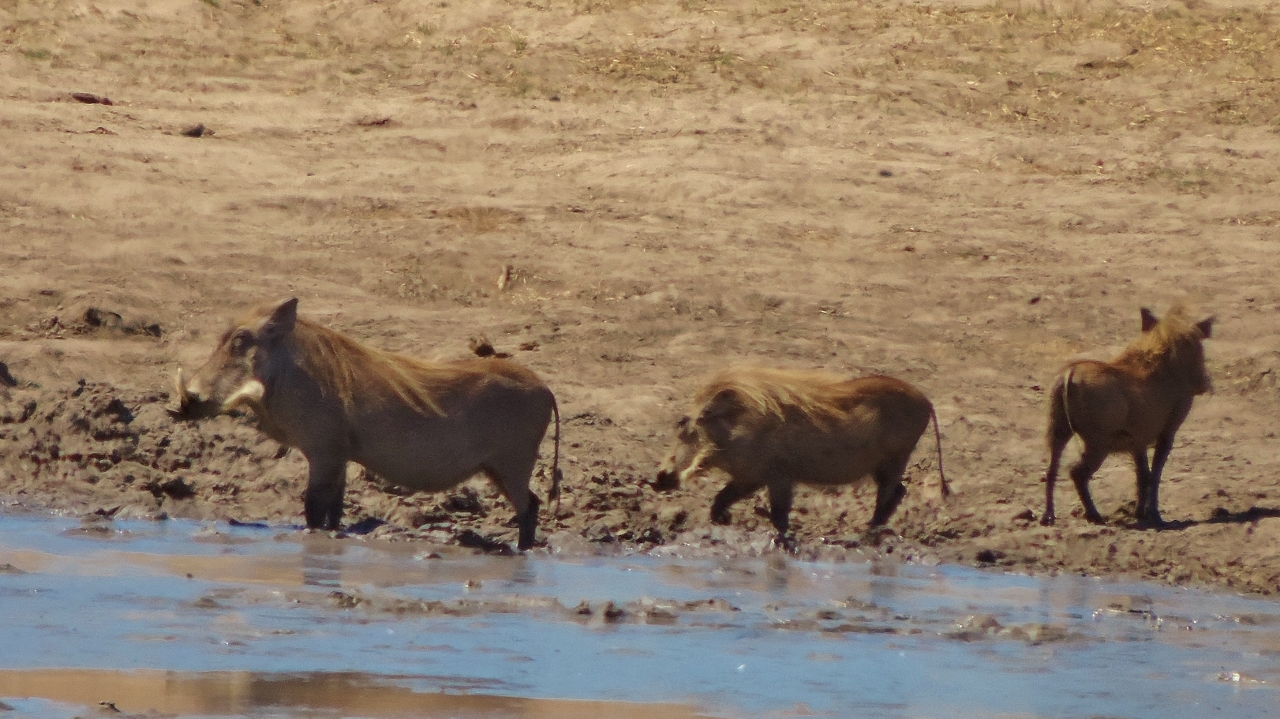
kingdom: Animalia
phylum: Chordata
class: Mammalia
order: Artiodactyla
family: Suidae
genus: Phacochoerus
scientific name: Phacochoerus africanus
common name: Common warthog
